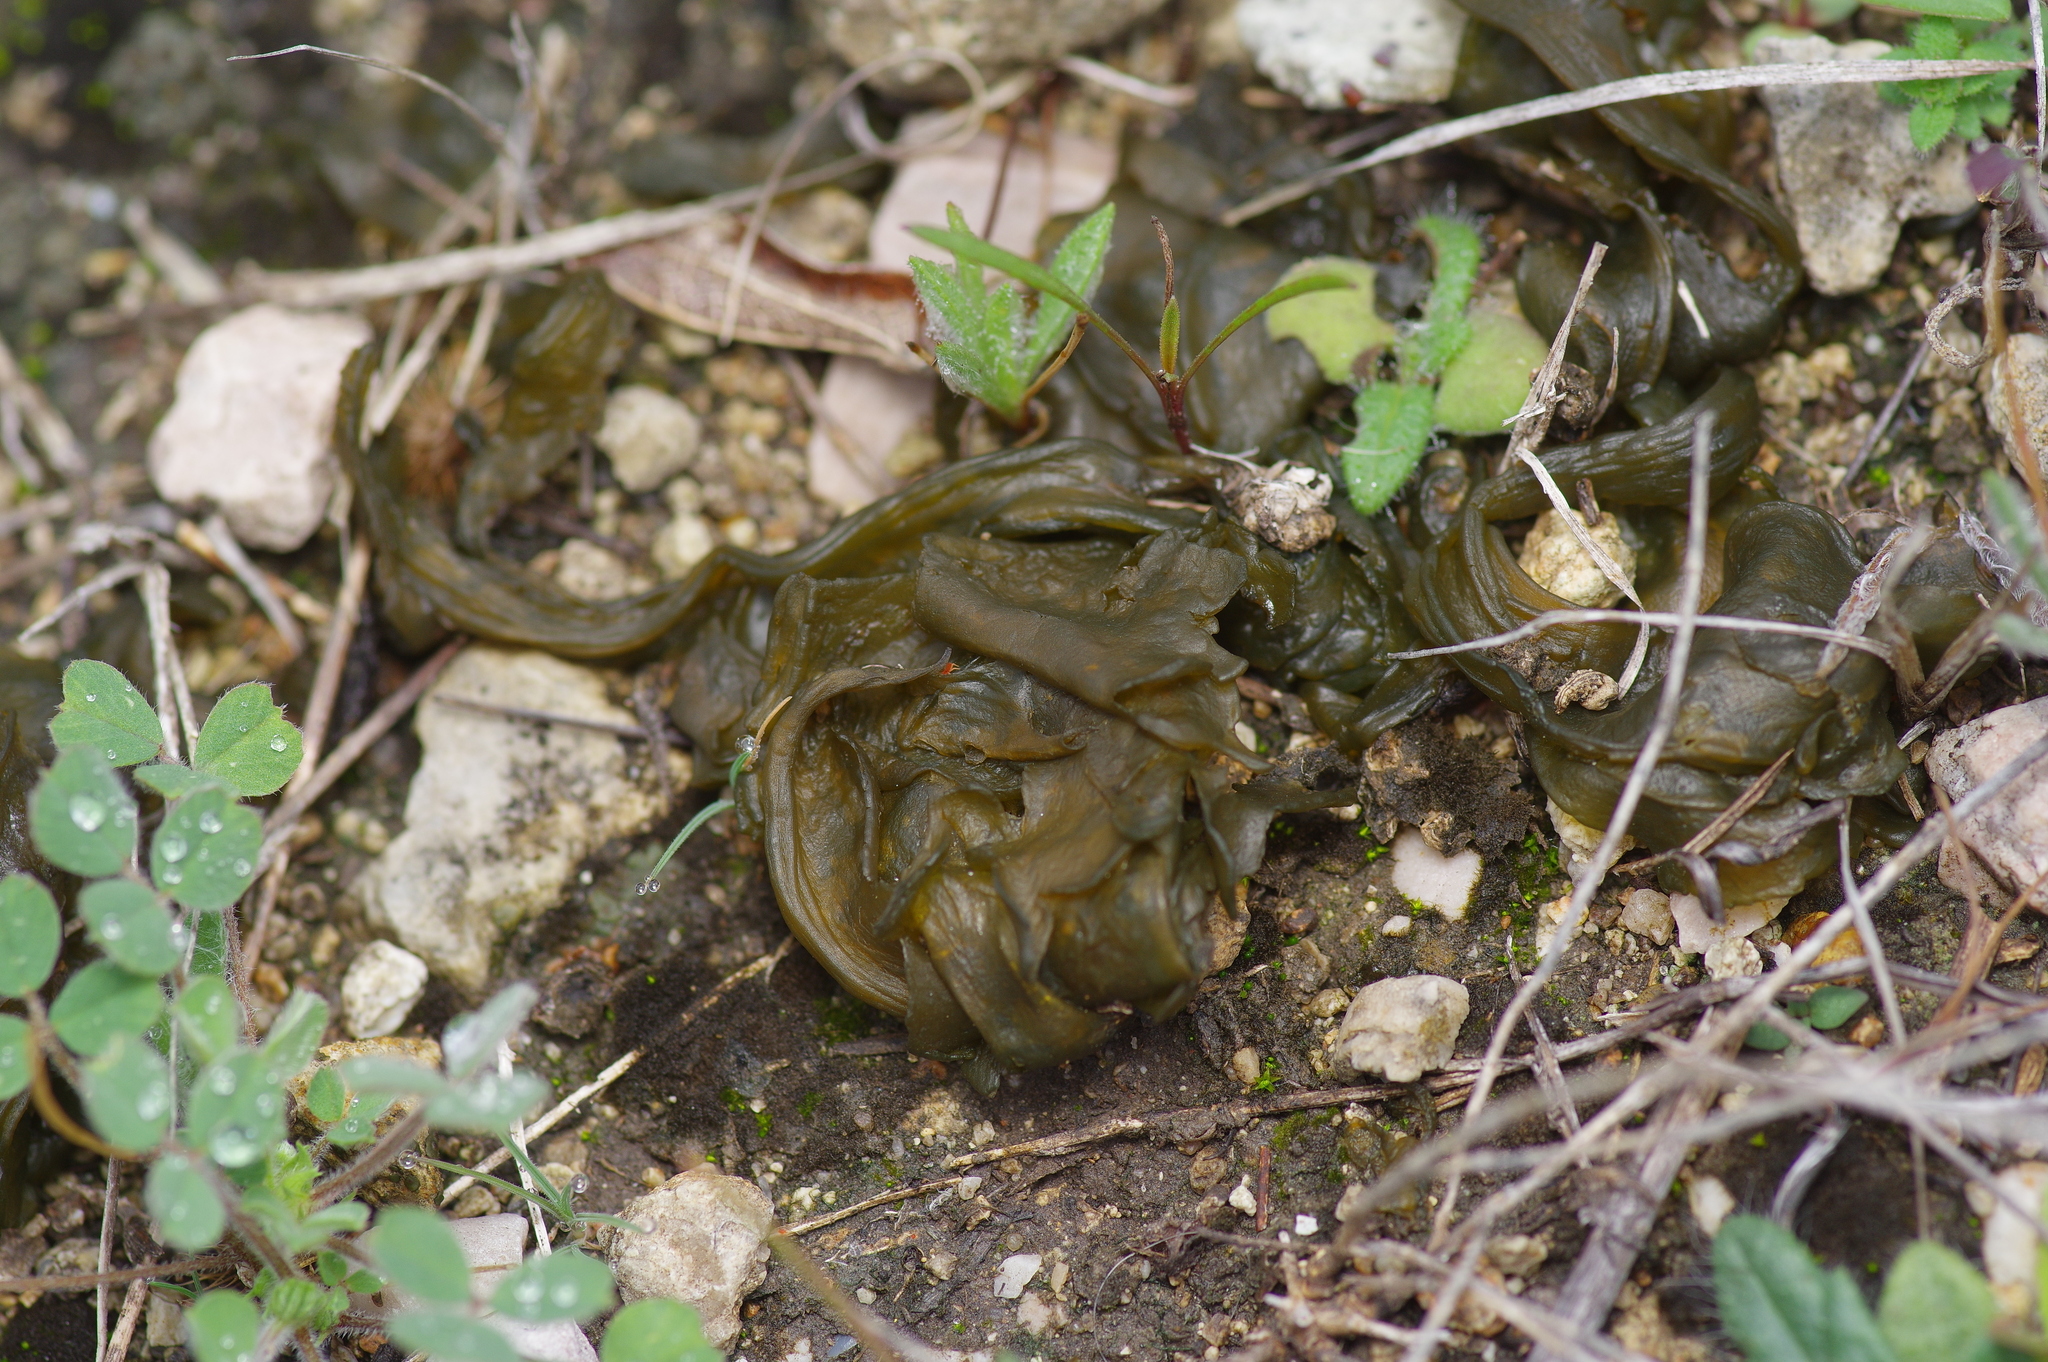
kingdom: Bacteria
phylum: Cyanobacteria
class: Cyanobacteriia
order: Cyanobacteriales
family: Nostocaceae
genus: Nostoc
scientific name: Nostoc commune
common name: Star jelly
